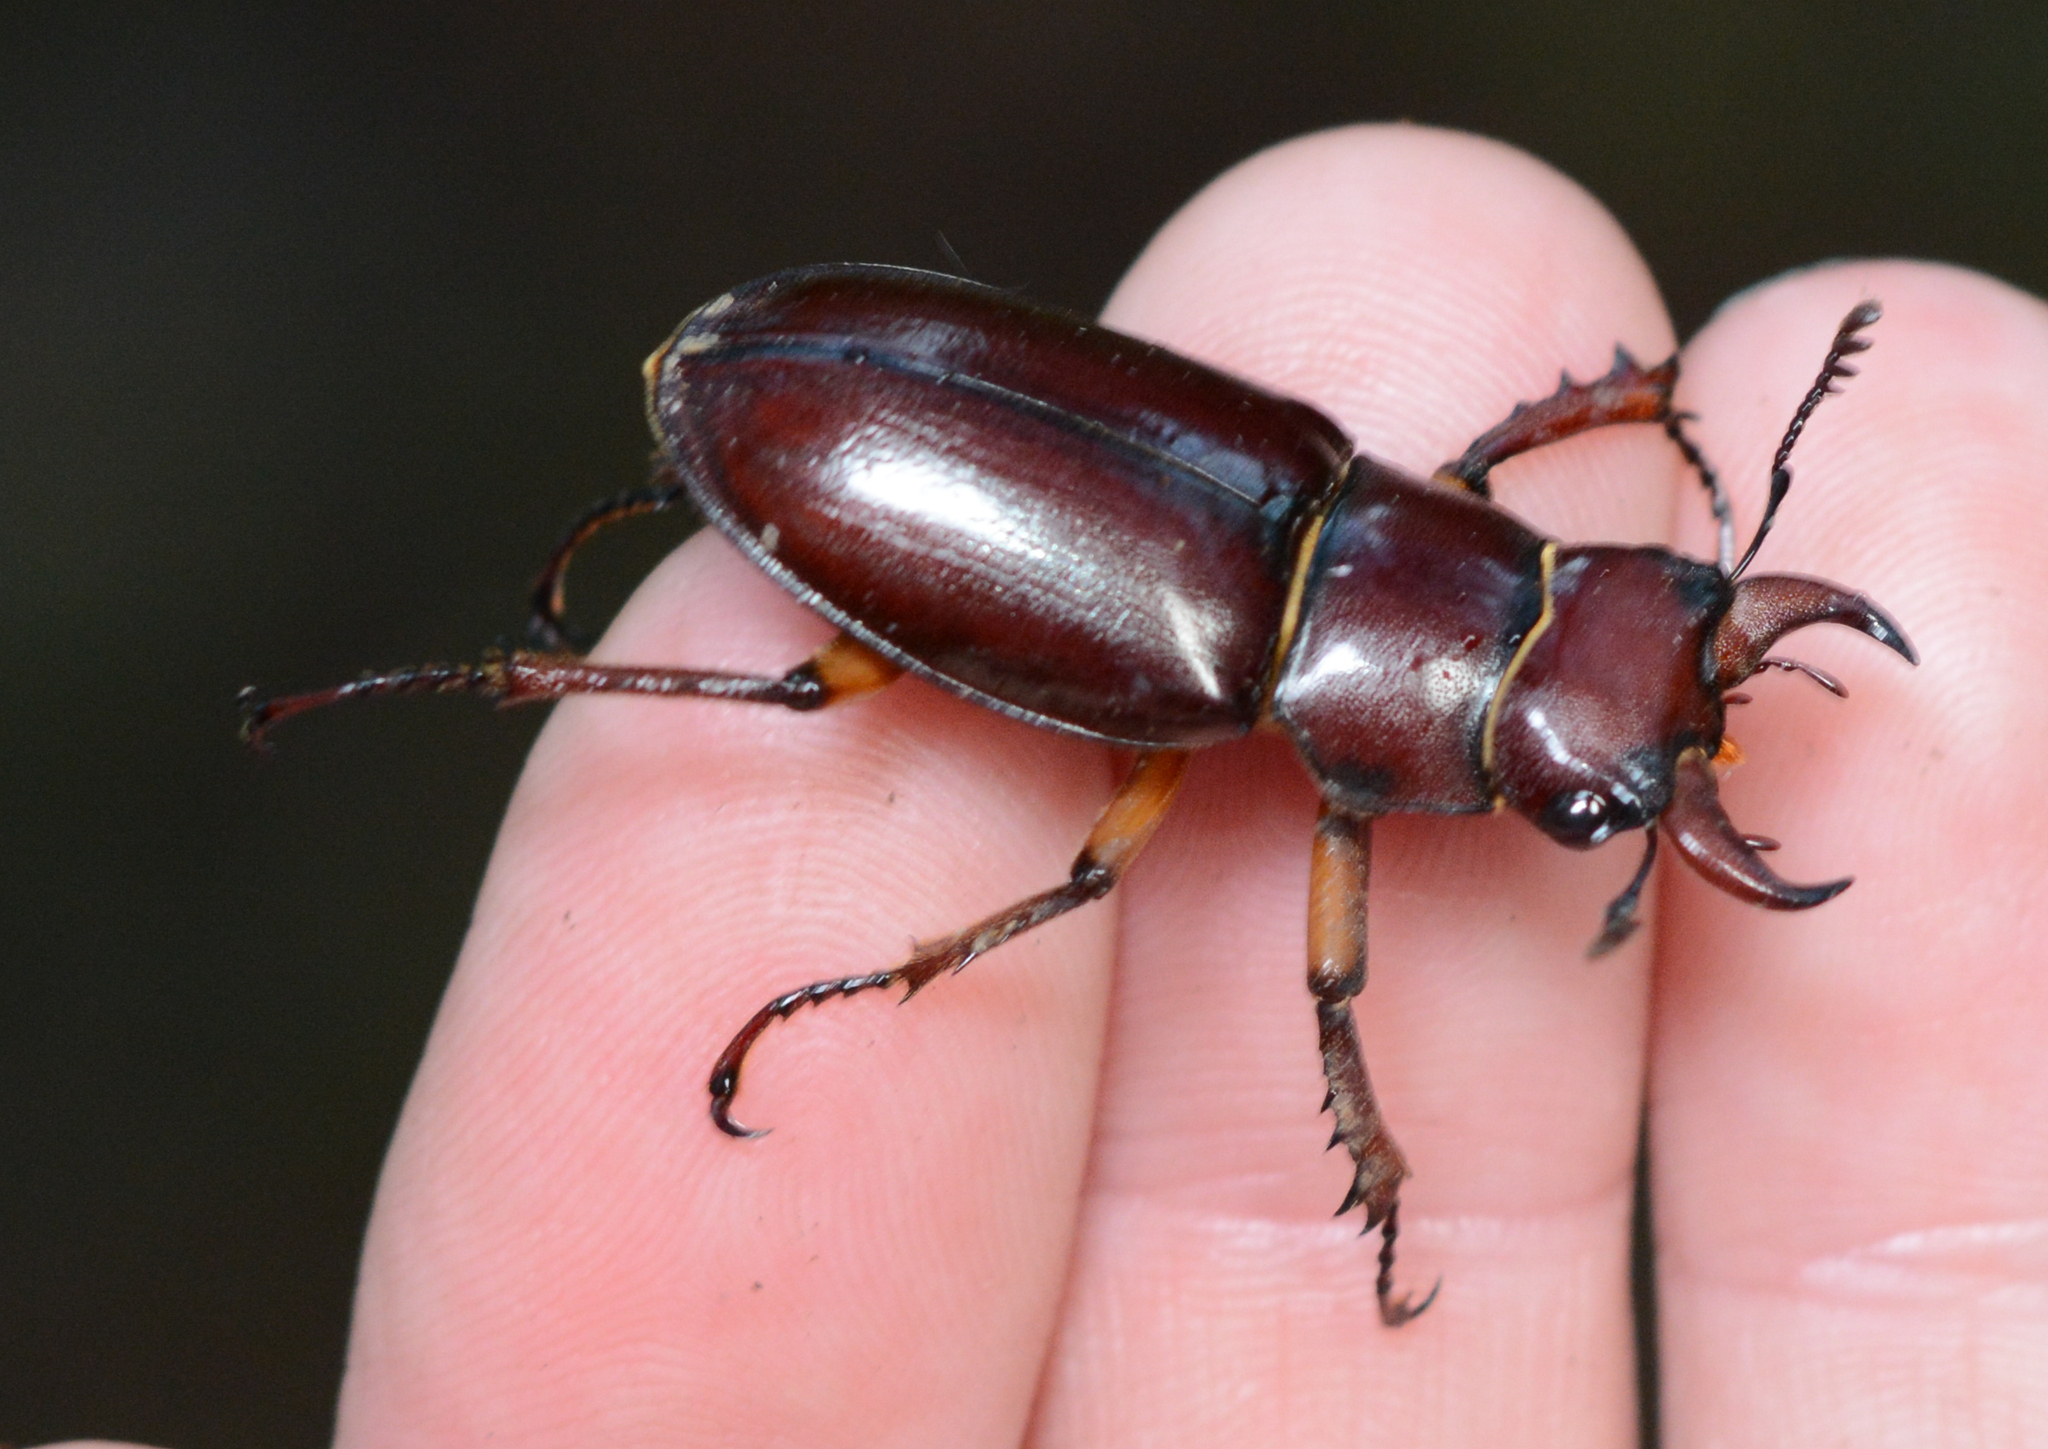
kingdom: Animalia
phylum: Arthropoda
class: Insecta
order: Coleoptera
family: Lucanidae
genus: Lucanus
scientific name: Lucanus capreolus
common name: Stag beetle
